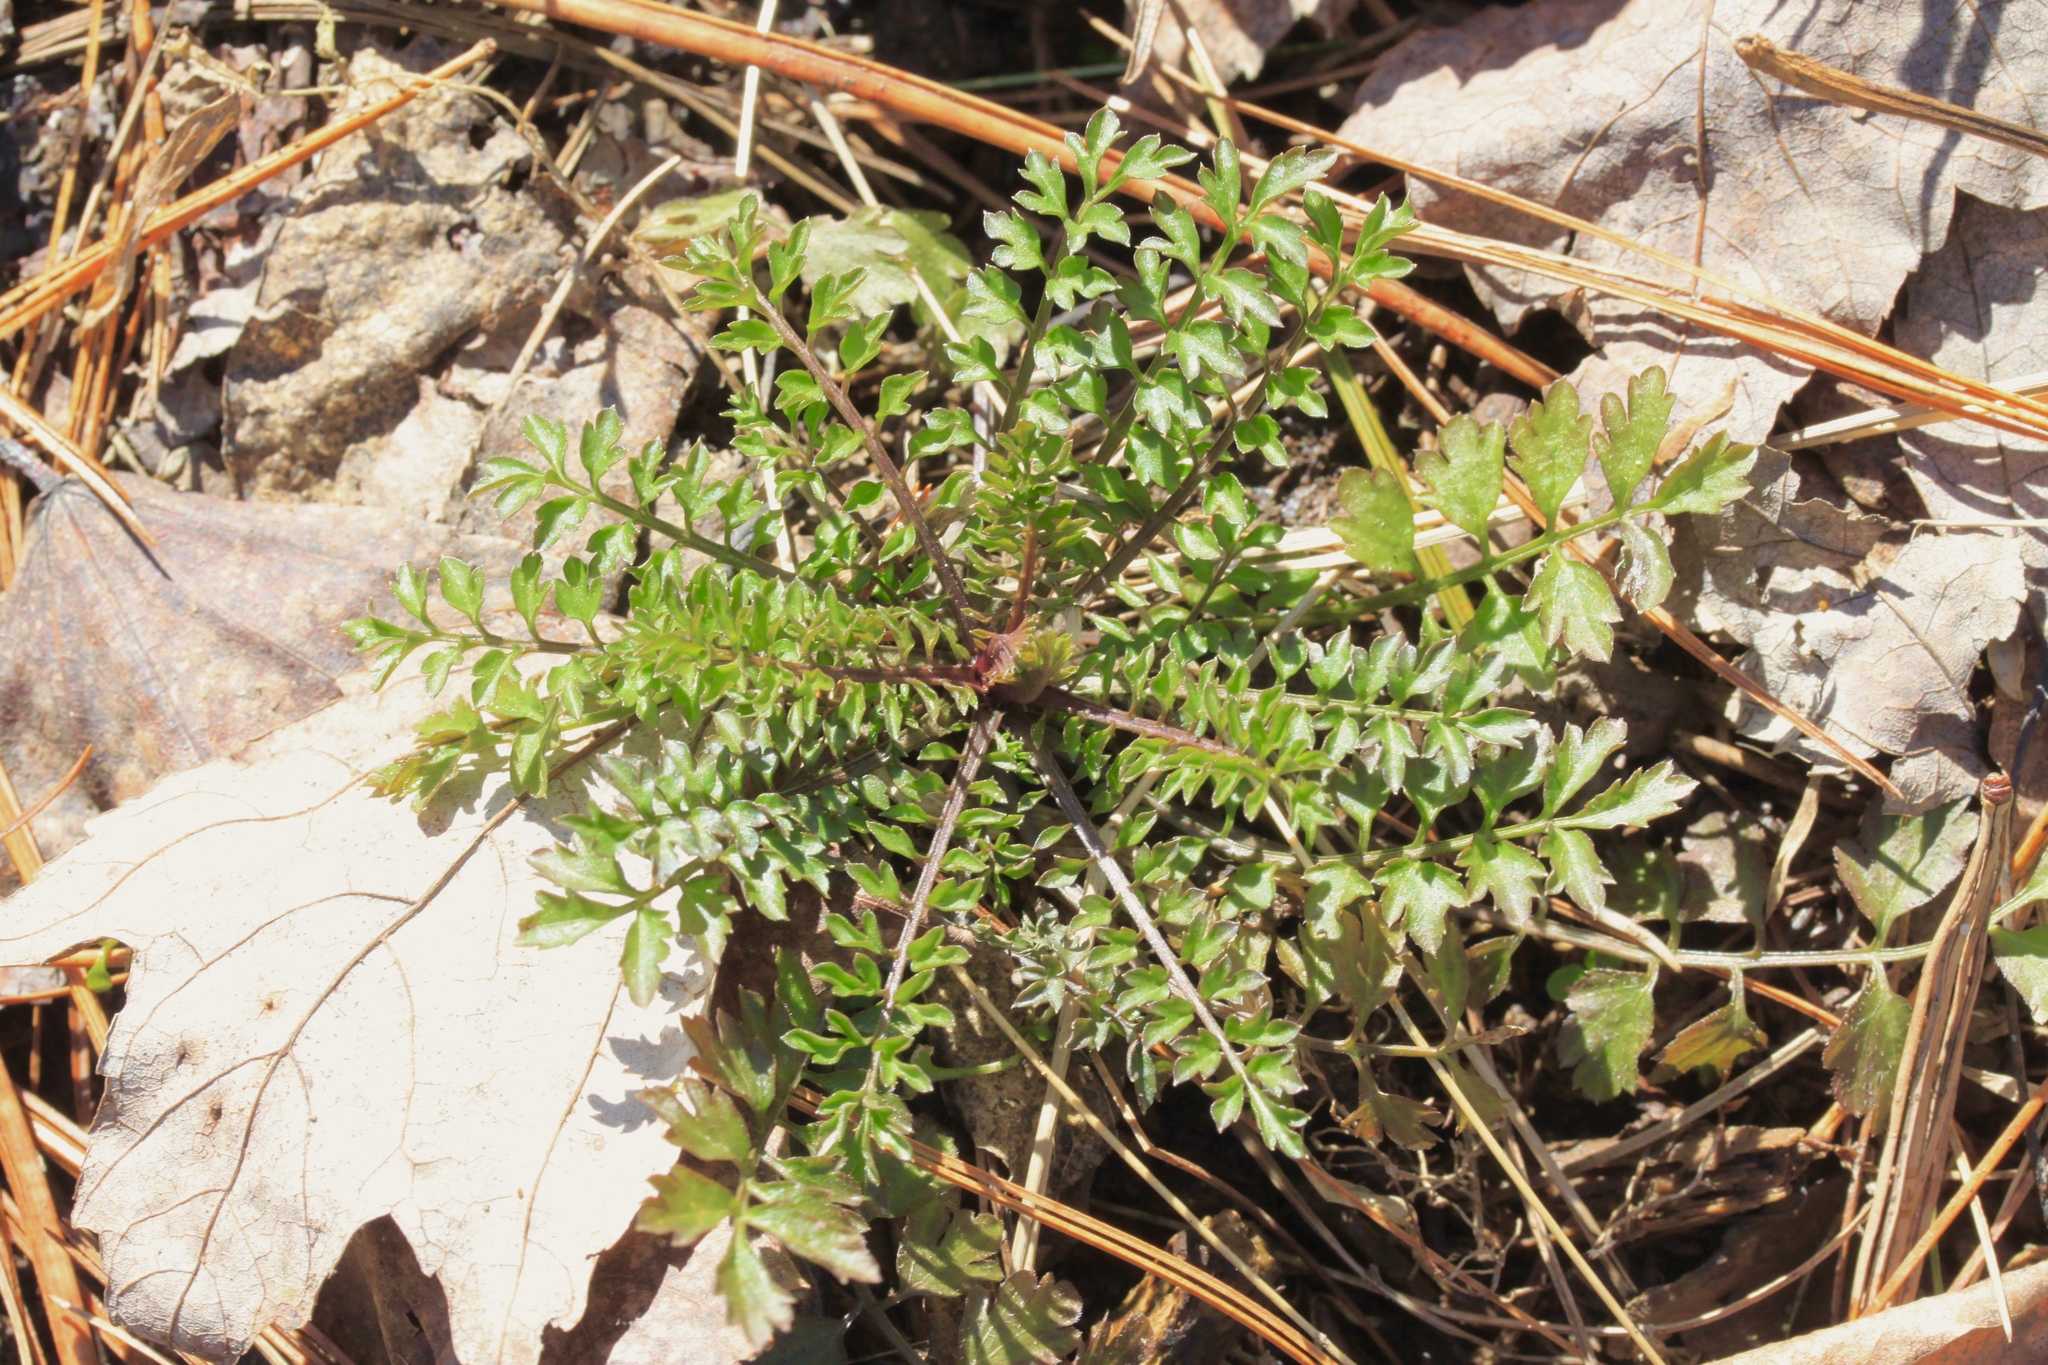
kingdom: Plantae
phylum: Tracheophyta
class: Magnoliopsida
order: Brassicales
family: Brassicaceae
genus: Cardamine
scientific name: Cardamine impatiens
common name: Narrow-leaved bitter-cress
